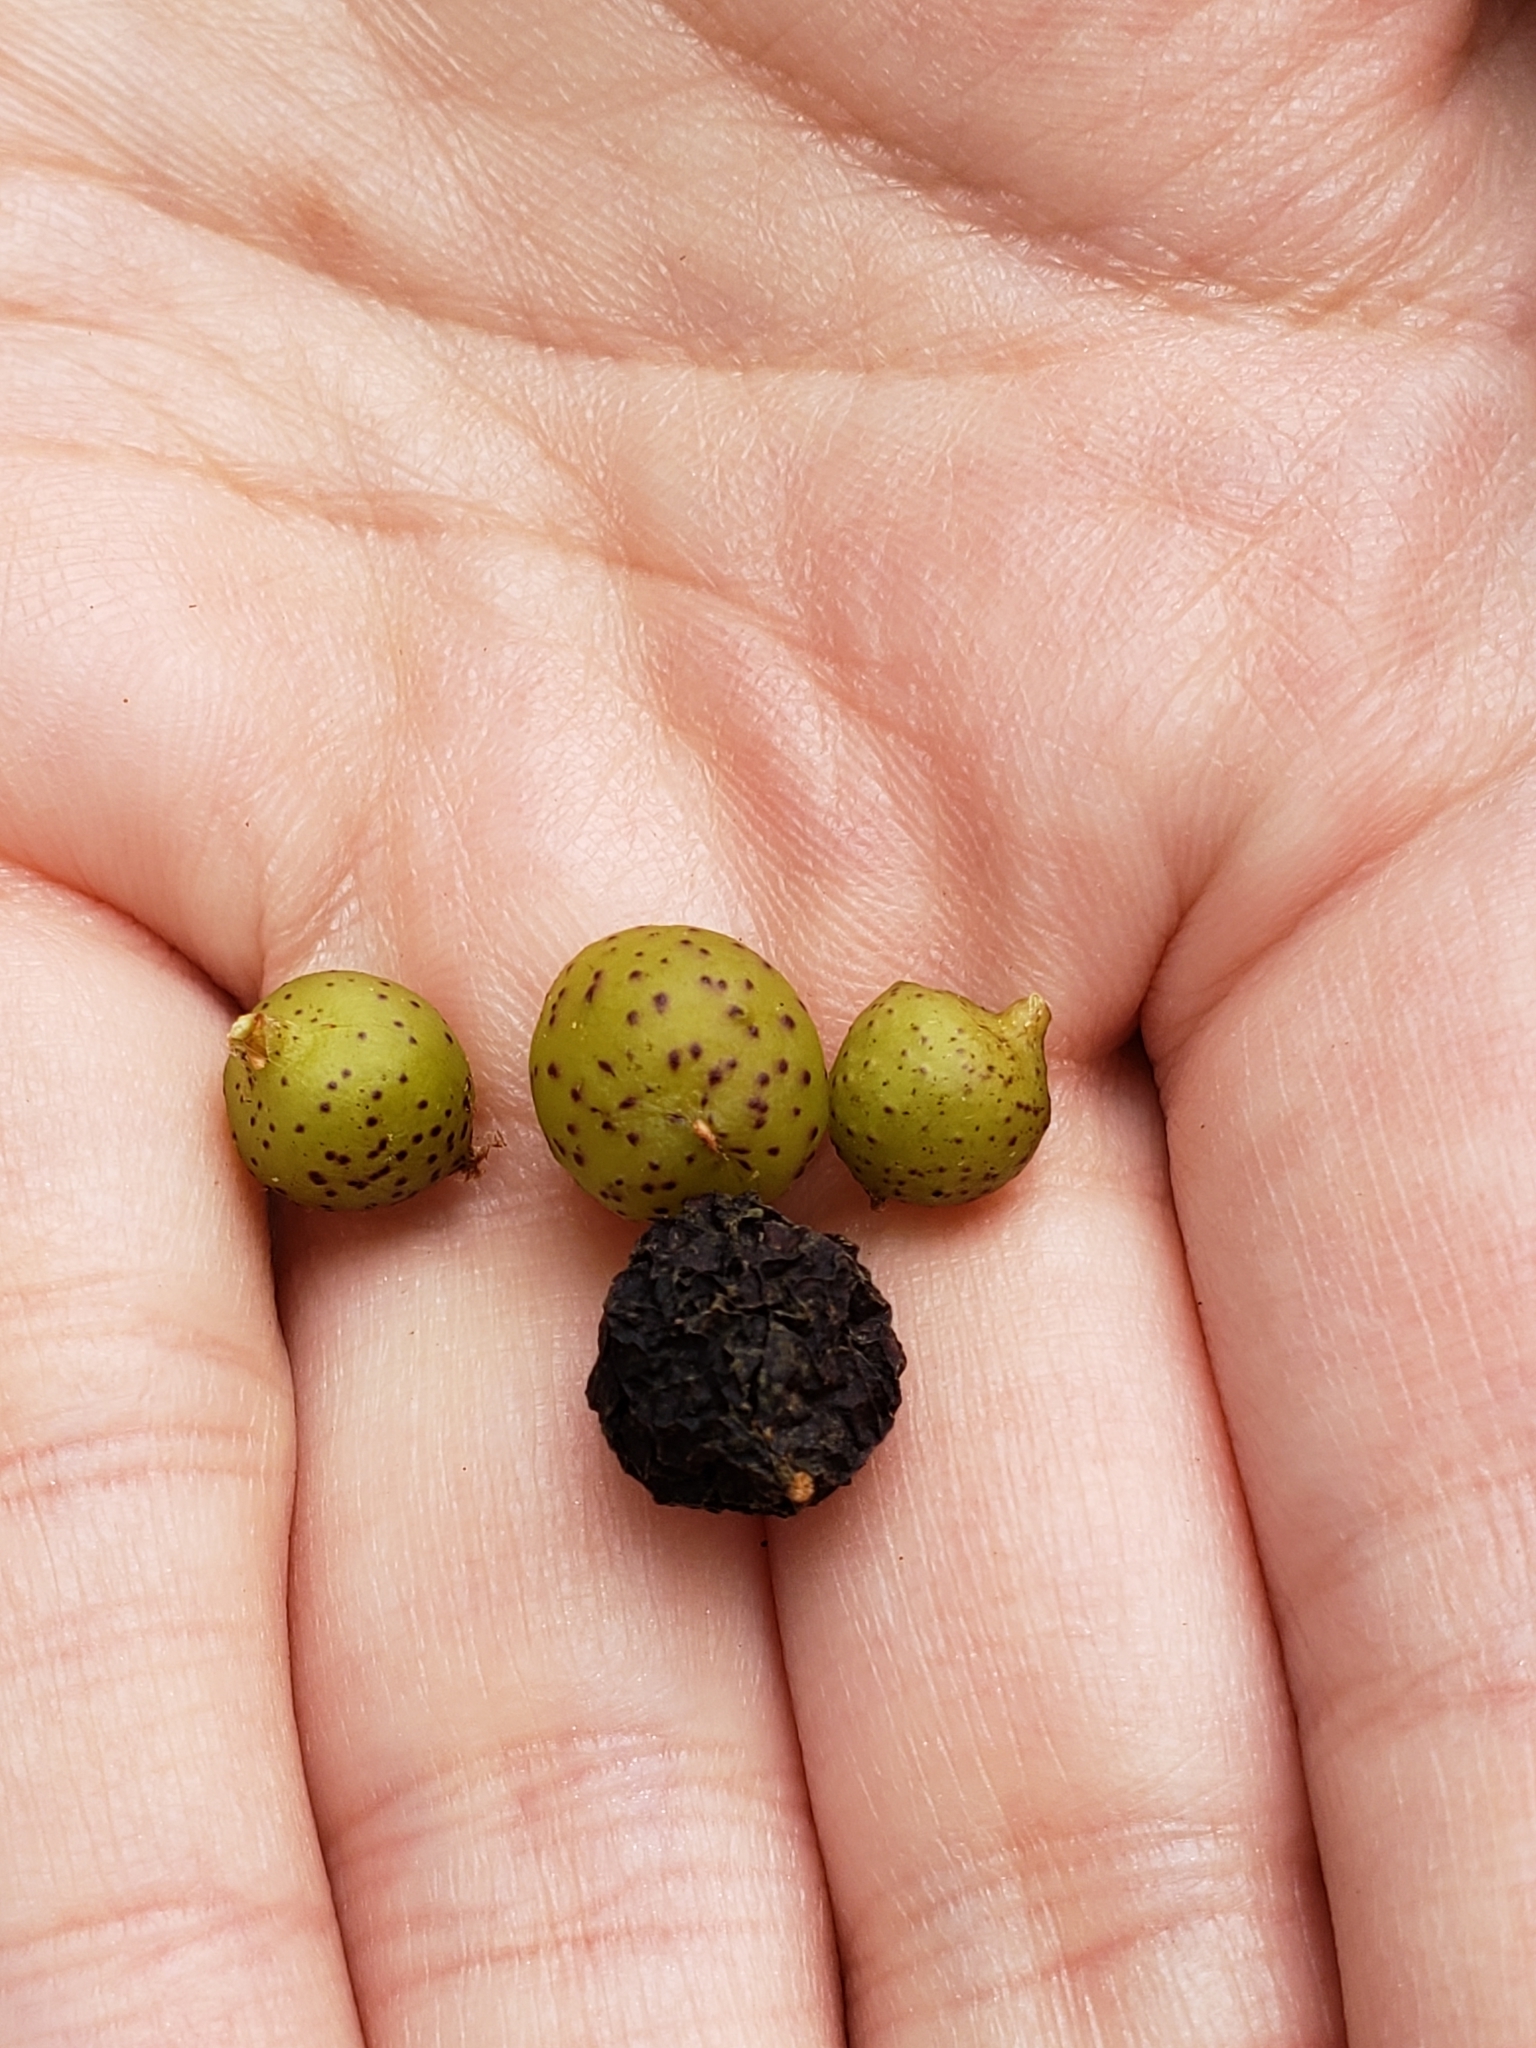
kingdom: Animalia
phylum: Arthropoda
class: Insecta
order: Hymenoptera
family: Cynipidae
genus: Amphibolips
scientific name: Amphibolips
